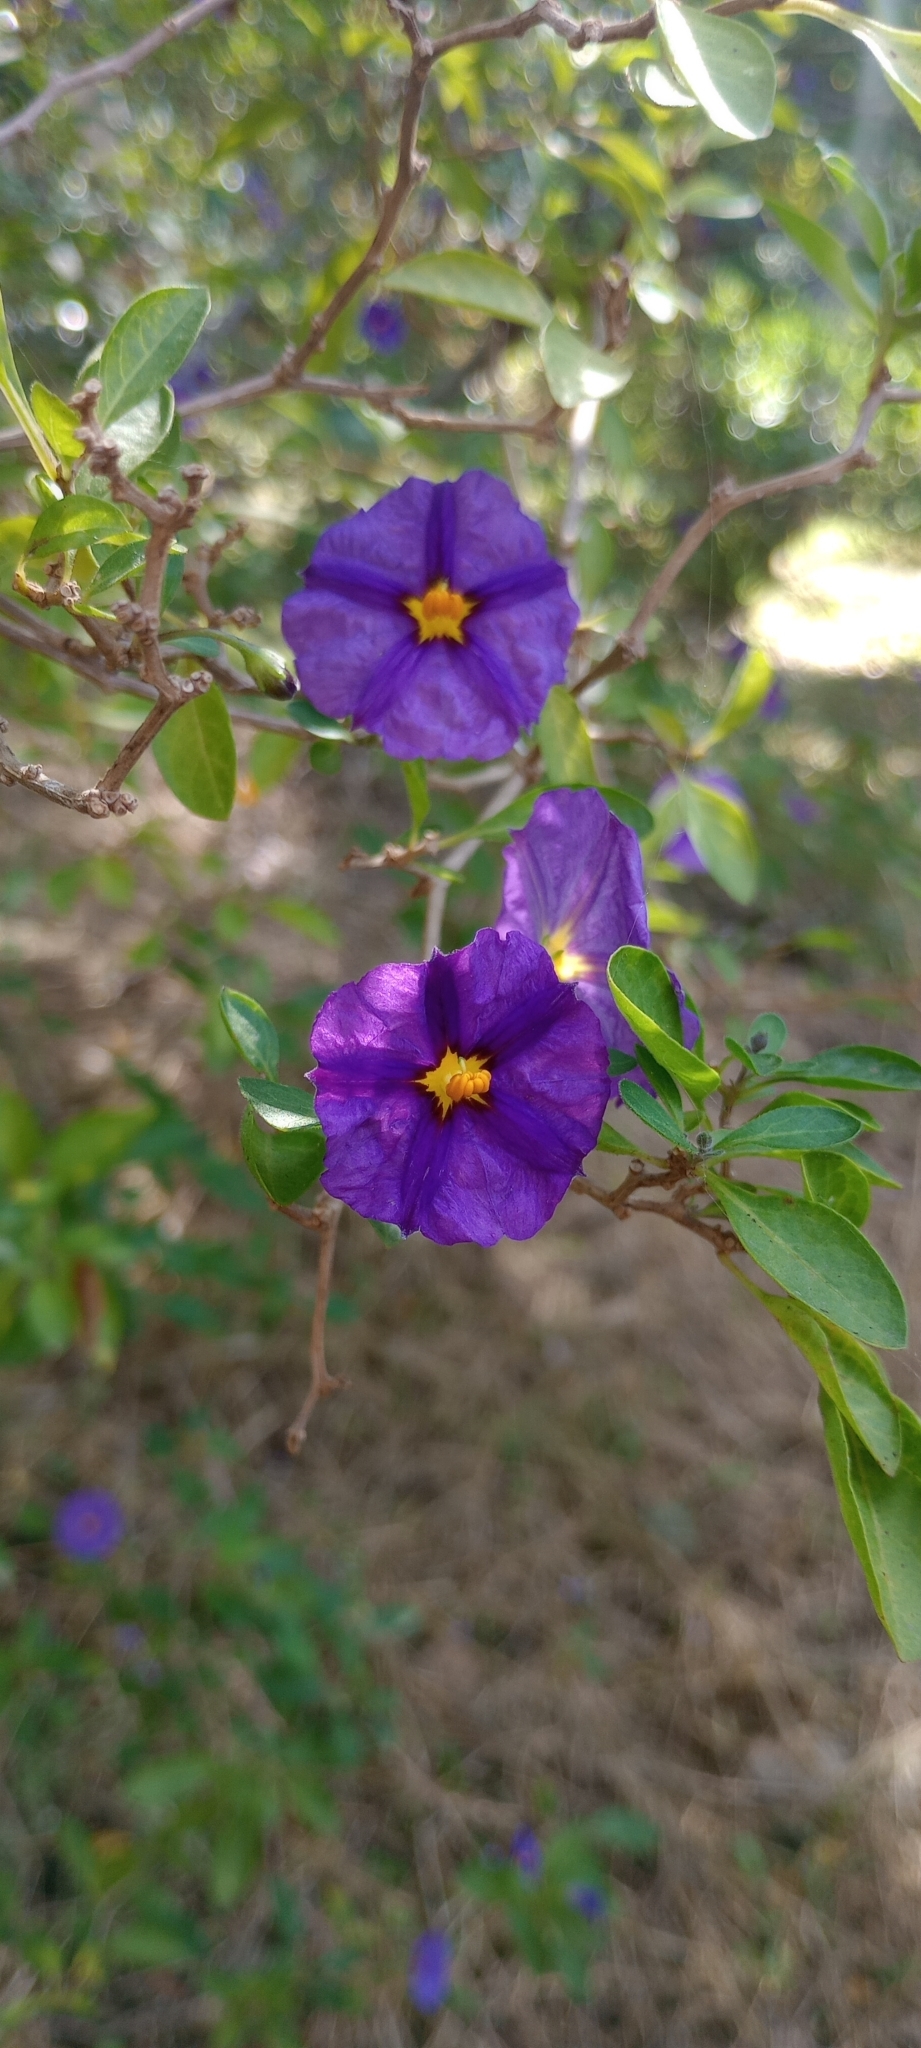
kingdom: Plantae
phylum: Tracheophyta
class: Magnoliopsida
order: Solanales
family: Solanaceae
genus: Lycianthes
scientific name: Lycianthes rantonnetii
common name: Blue potatobush
